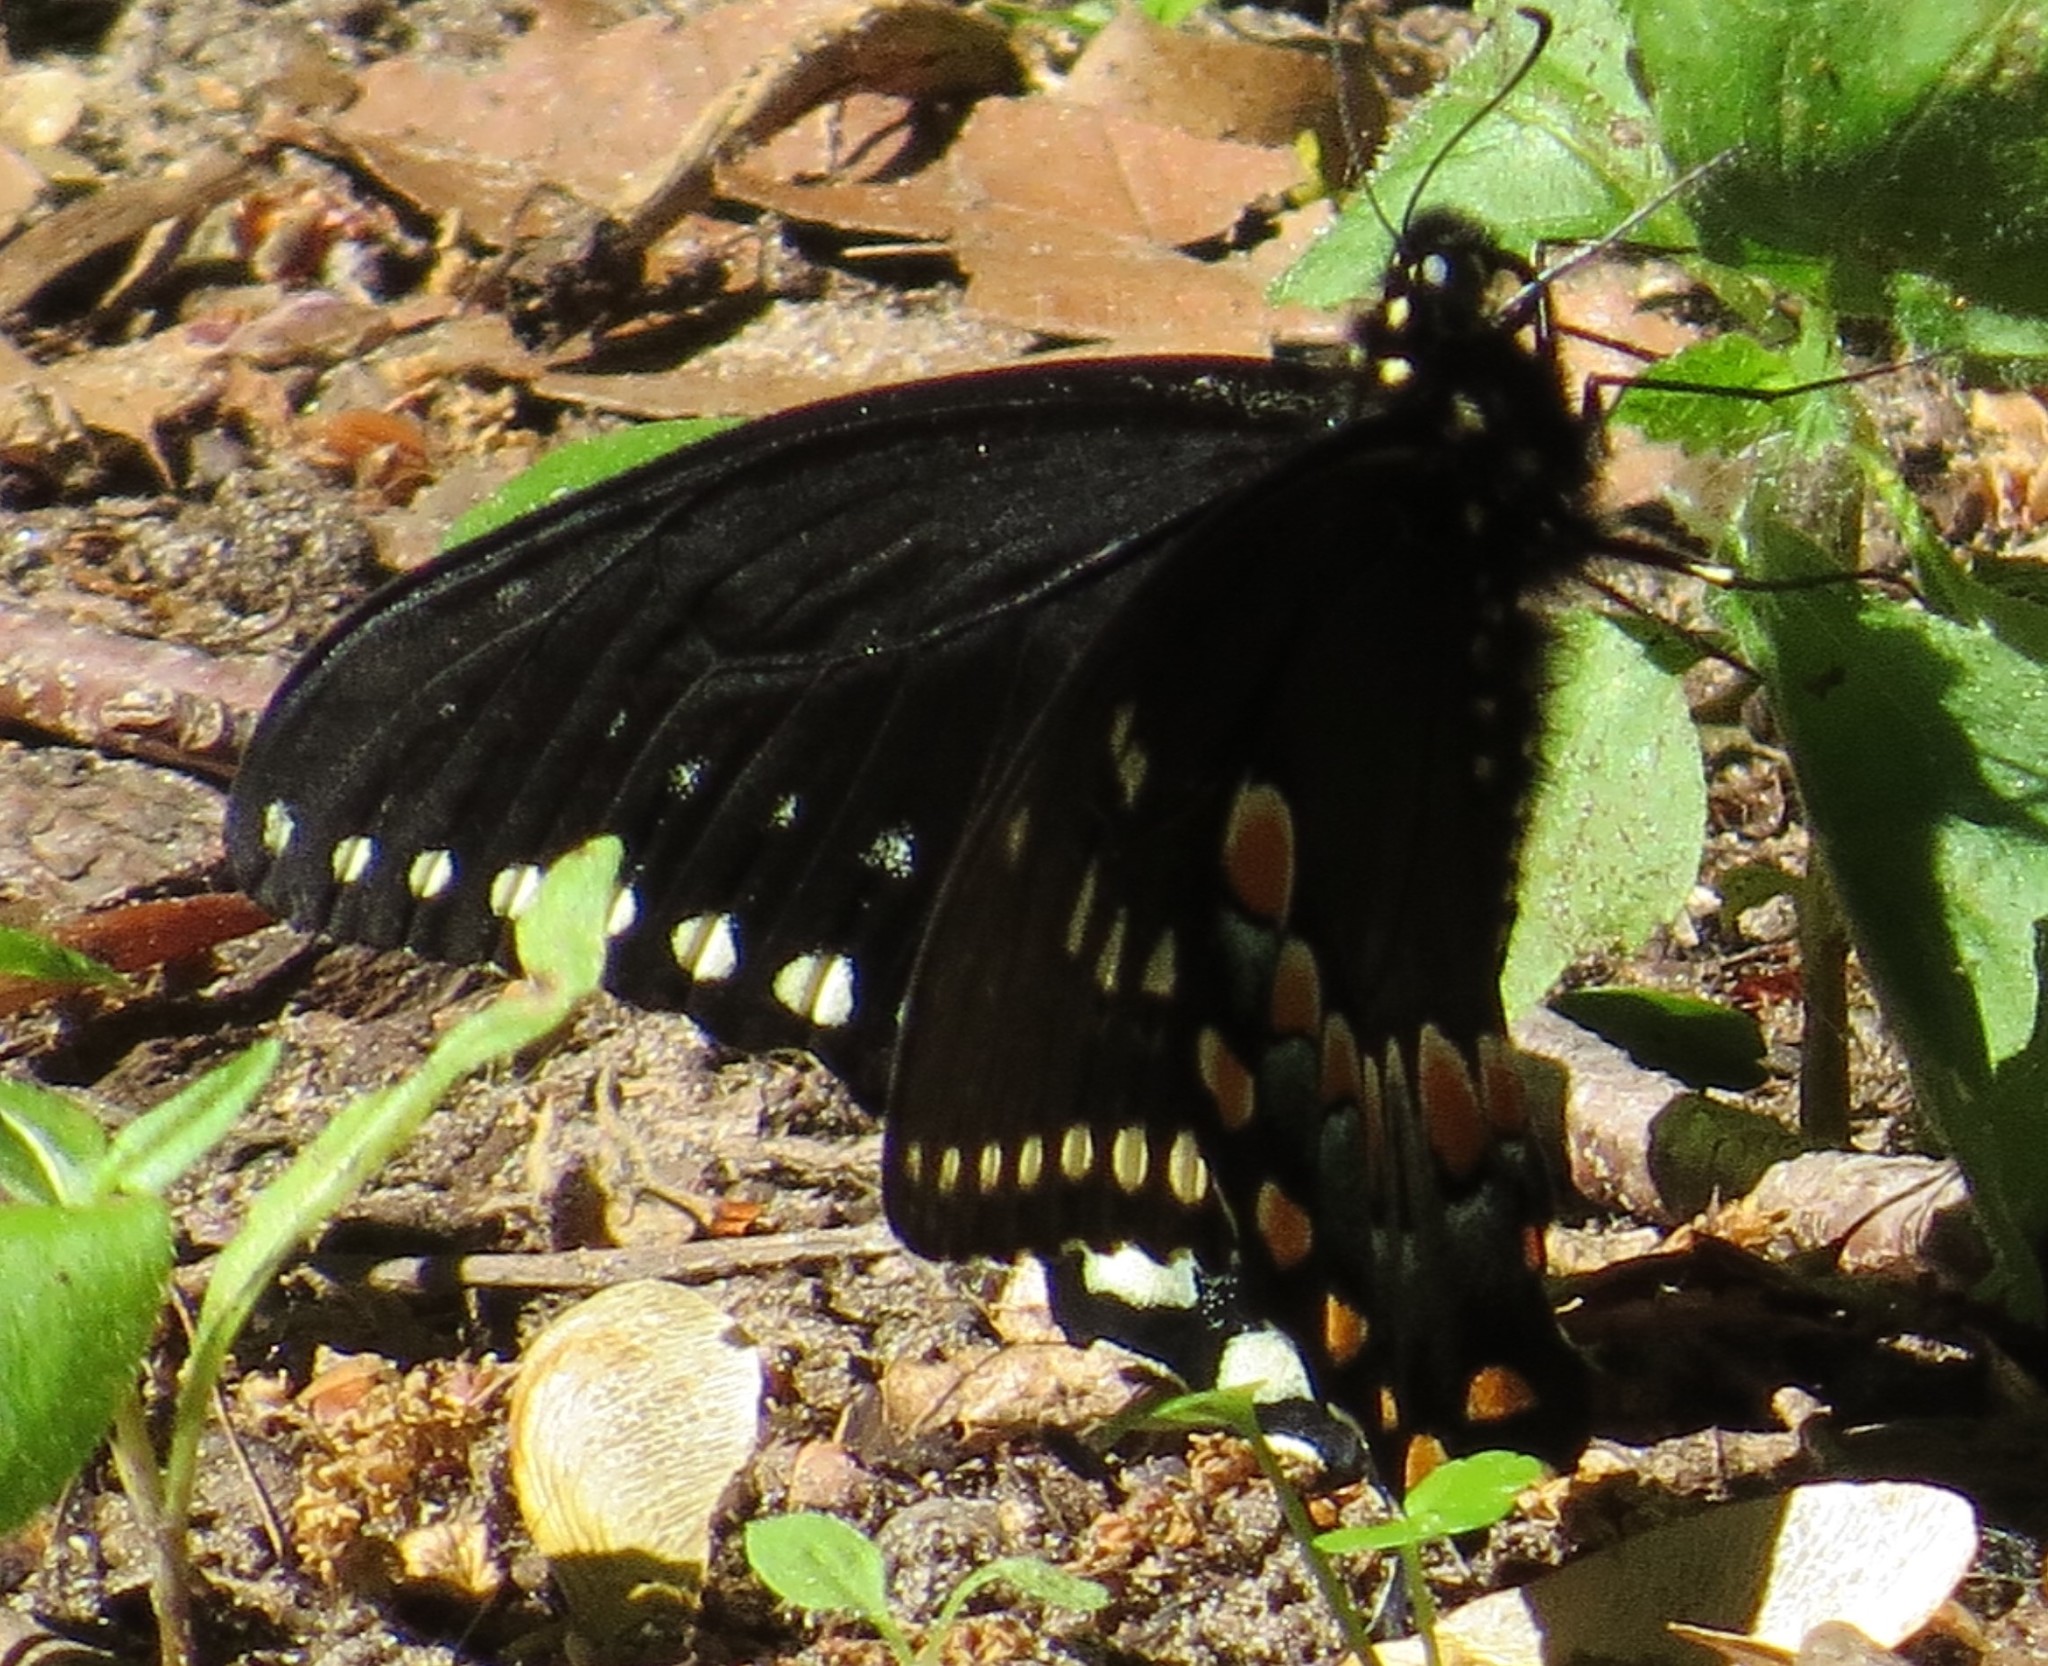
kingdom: Animalia
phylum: Arthropoda
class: Insecta
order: Lepidoptera
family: Papilionidae
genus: Papilio
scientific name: Papilio troilus
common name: Spicebush swallowtail
